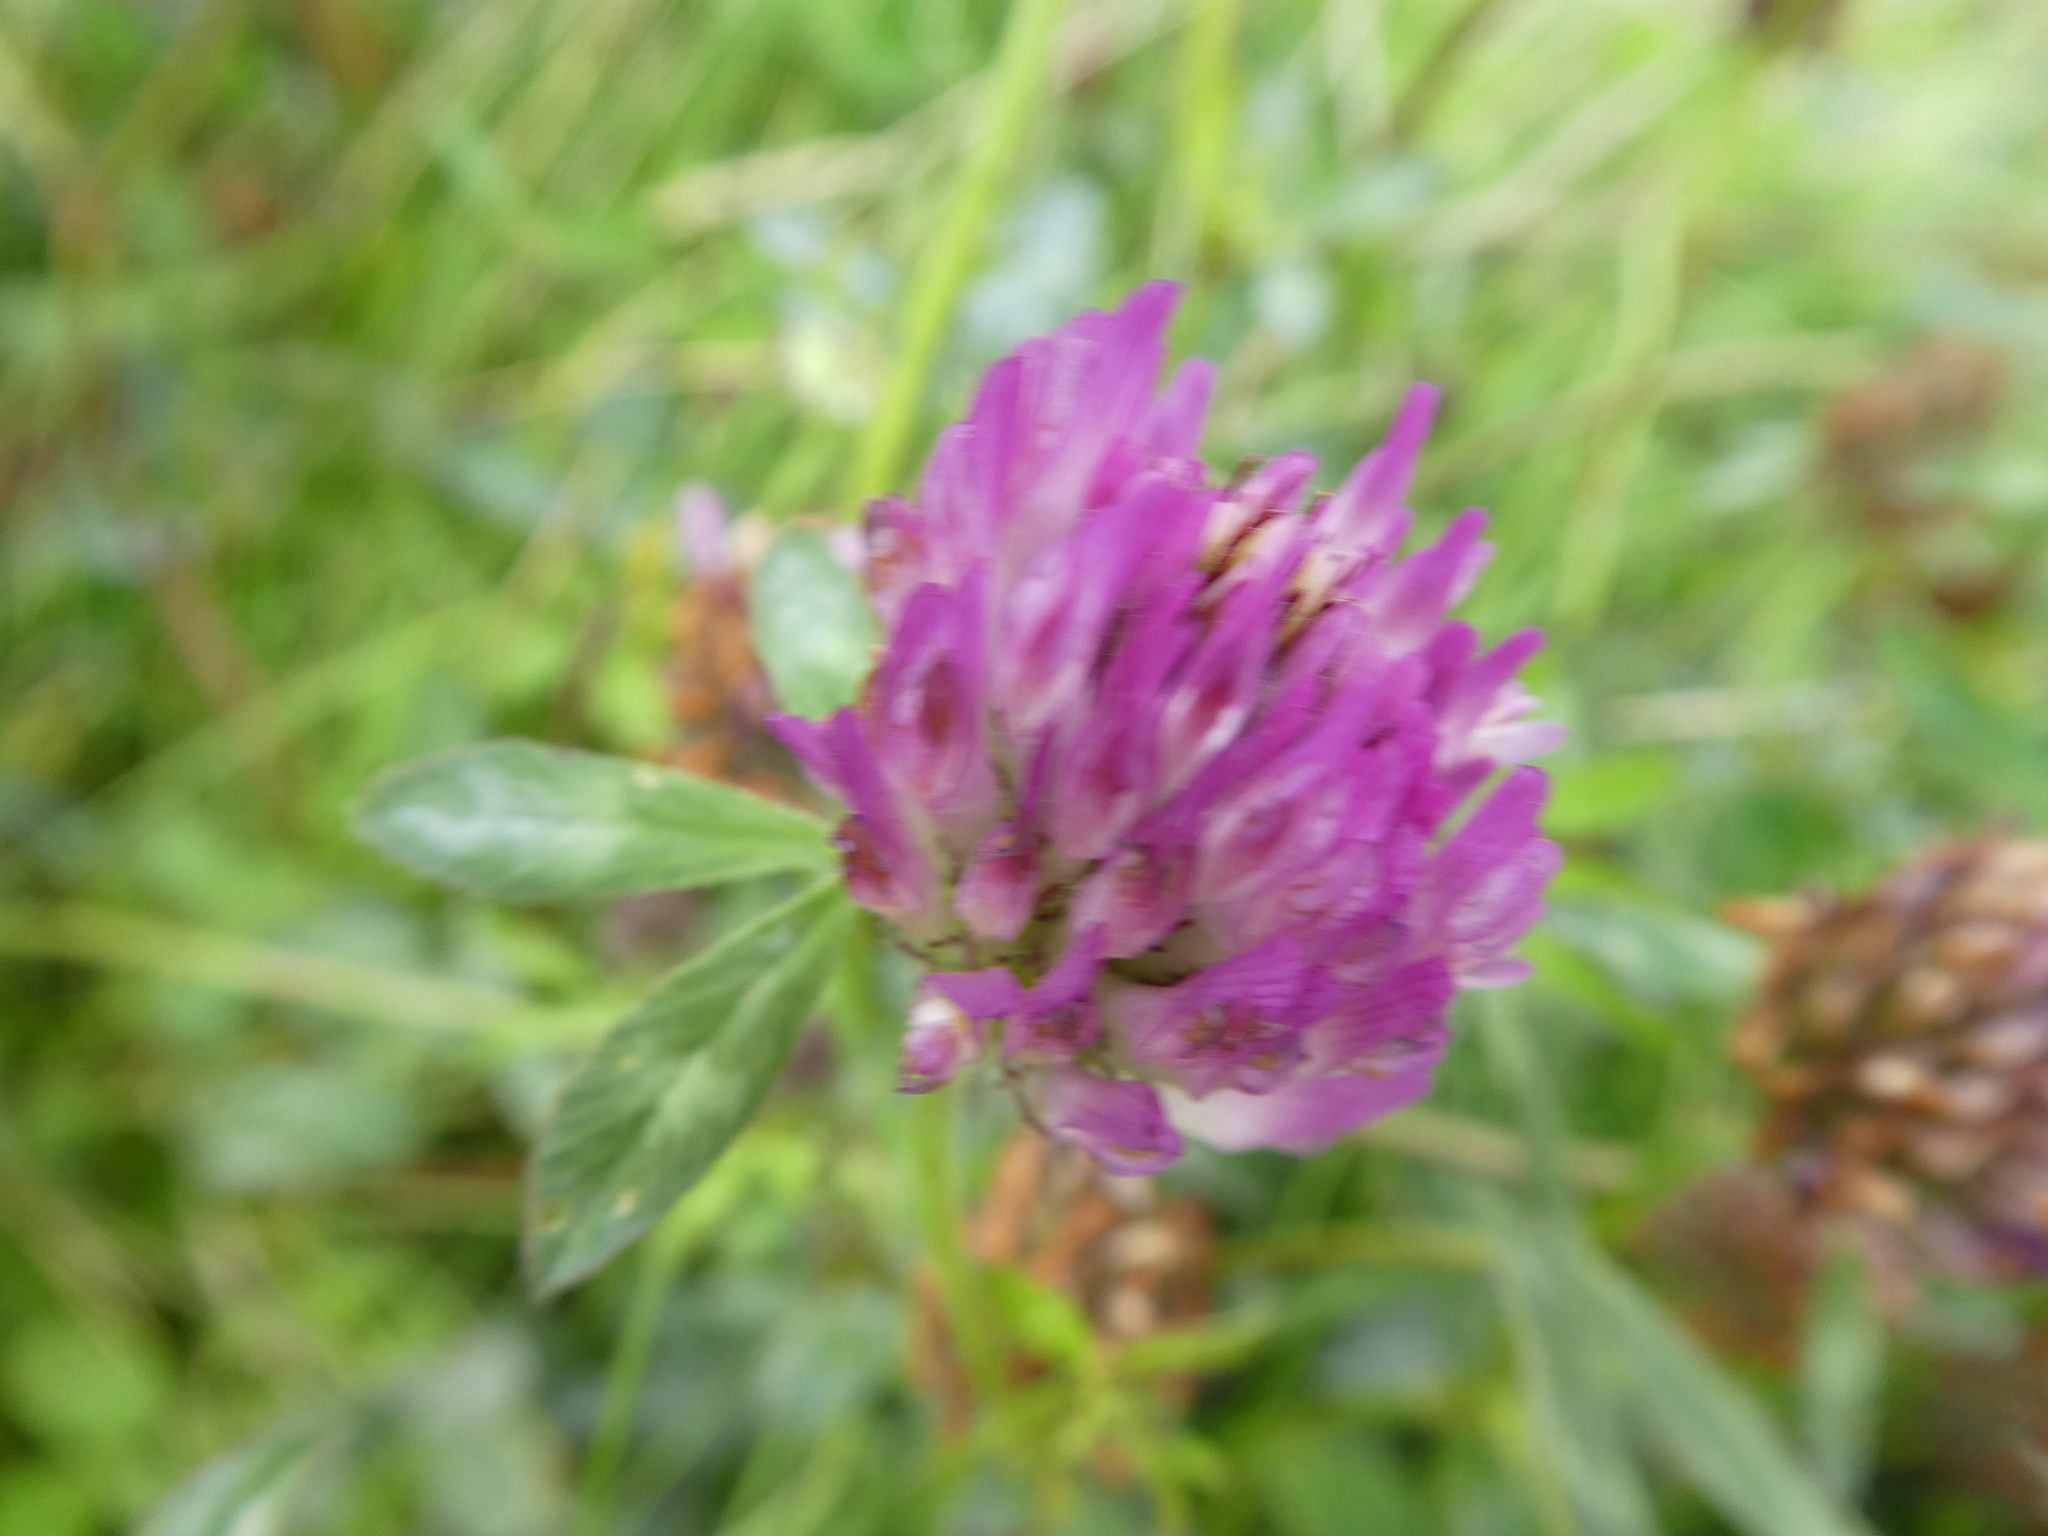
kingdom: Plantae
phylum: Tracheophyta
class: Magnoliopsida
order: Fabales
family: Fabaceae
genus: Trifolium
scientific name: Trifolium pratense
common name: Red clover
